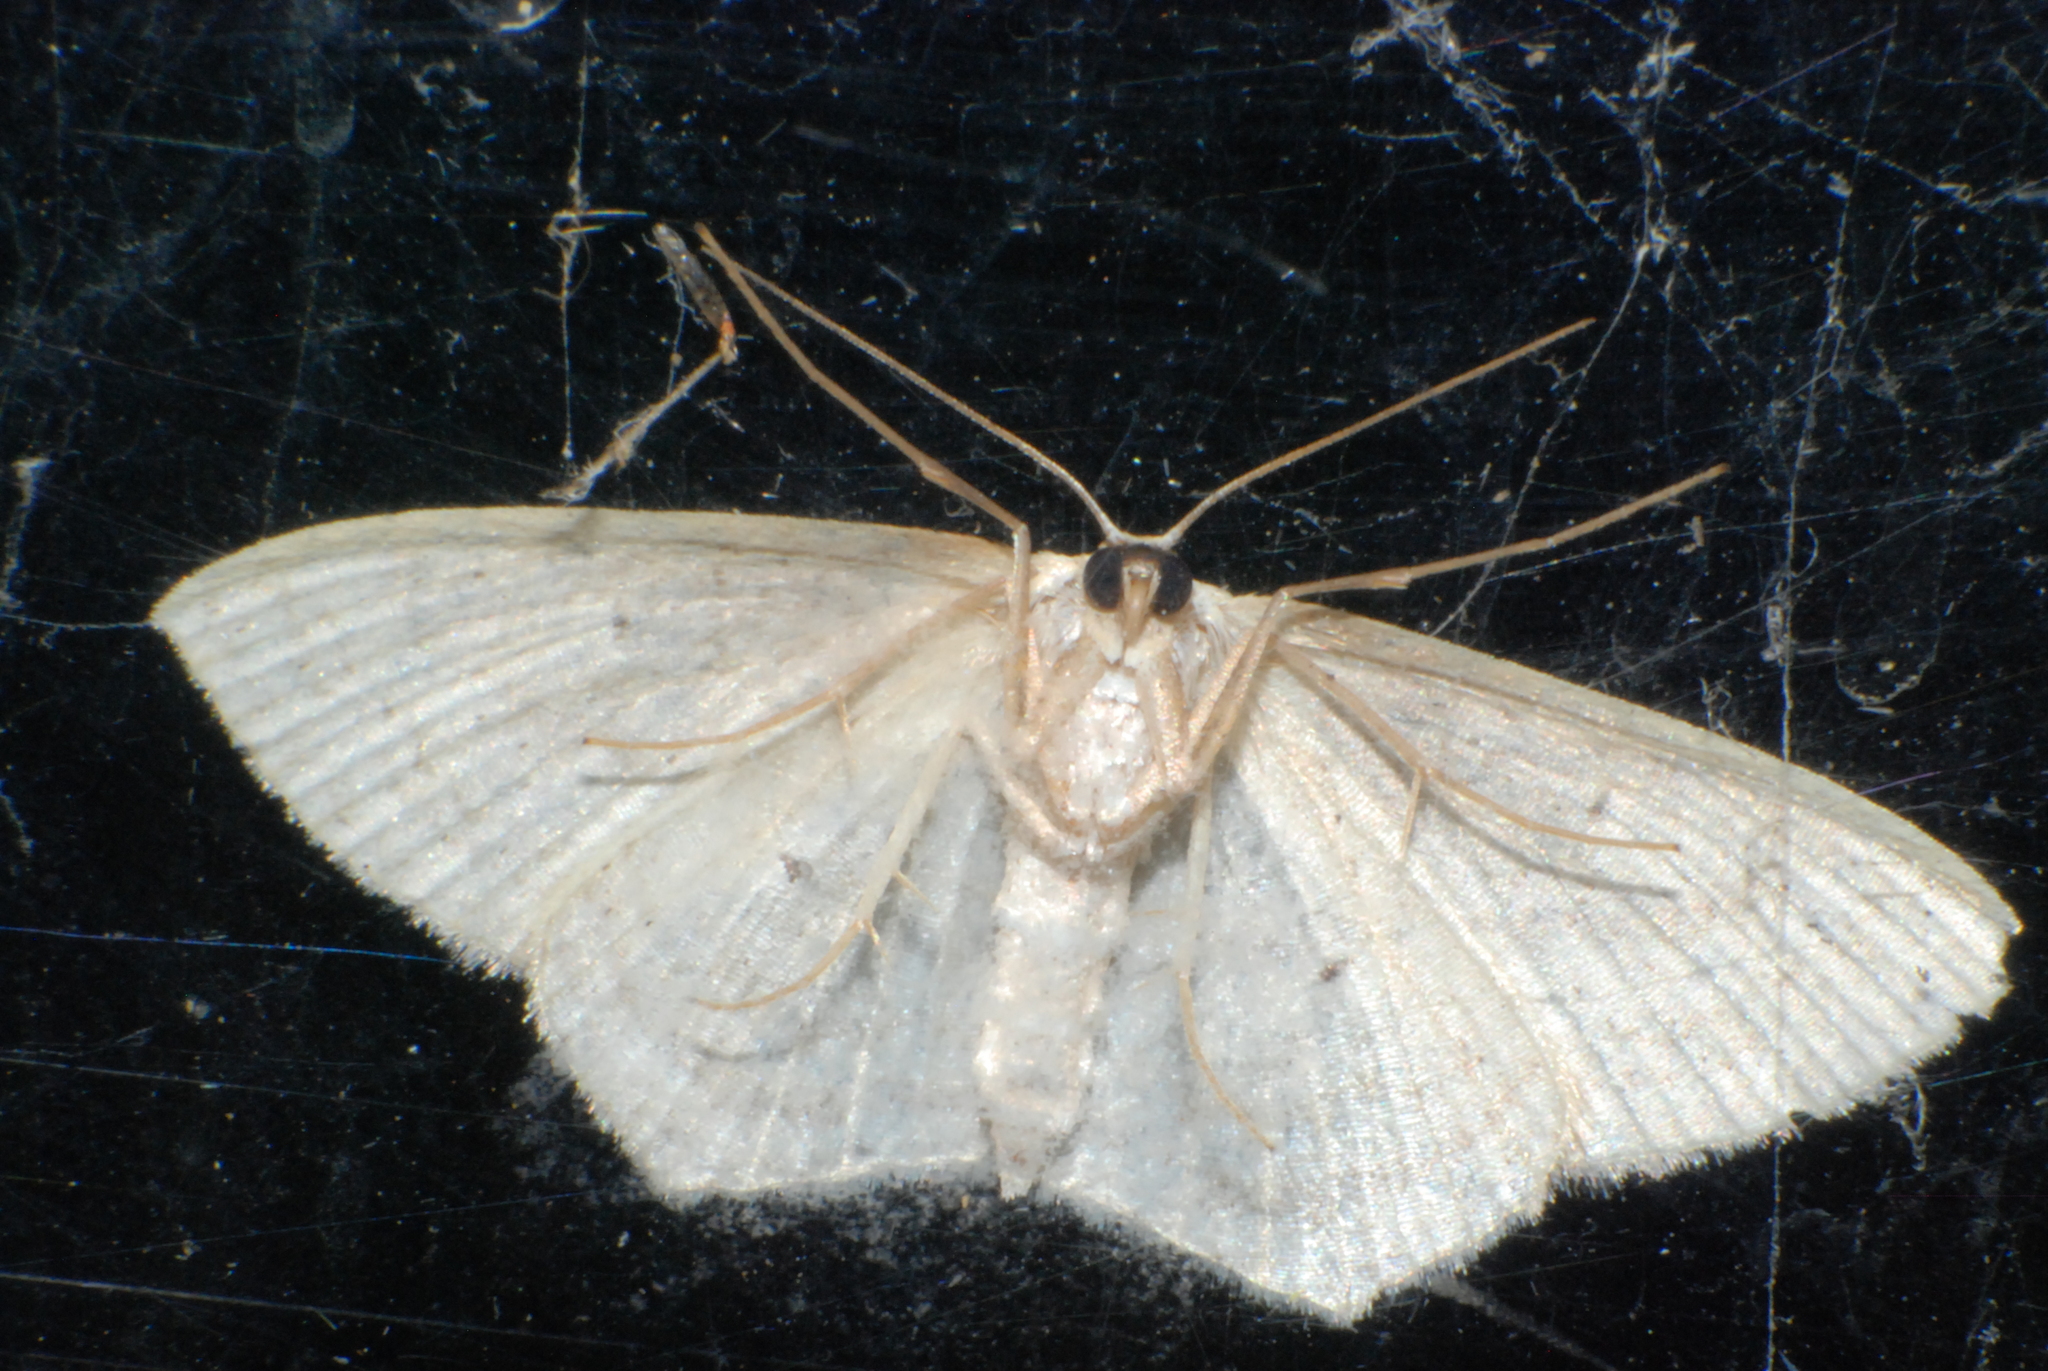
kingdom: Animalia
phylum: Arthropoda
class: Insecta
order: Lepidoptera
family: Geometridae
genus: Scopula
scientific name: Scopula perlata
